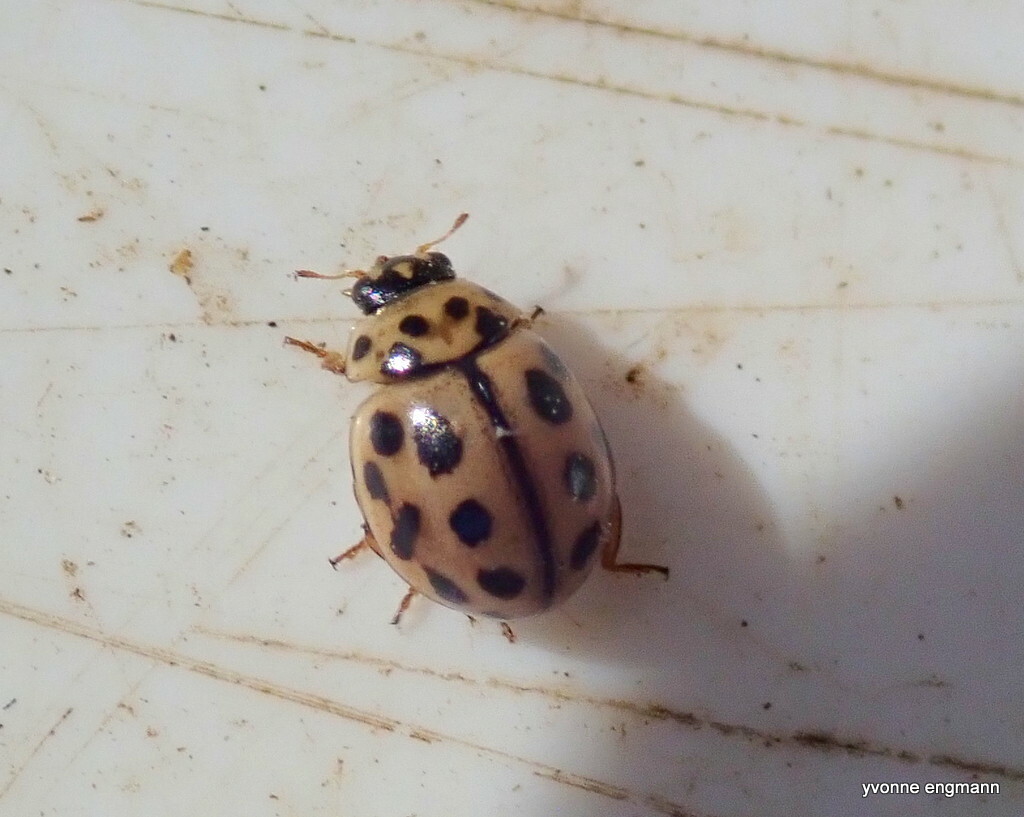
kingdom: Animalia
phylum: Arthropoda
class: Insecta
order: Coleoptera
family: Coccinellidae
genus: Tytthaspis
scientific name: Tytthaspis sedecimpunctata
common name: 16-spot ladybird
